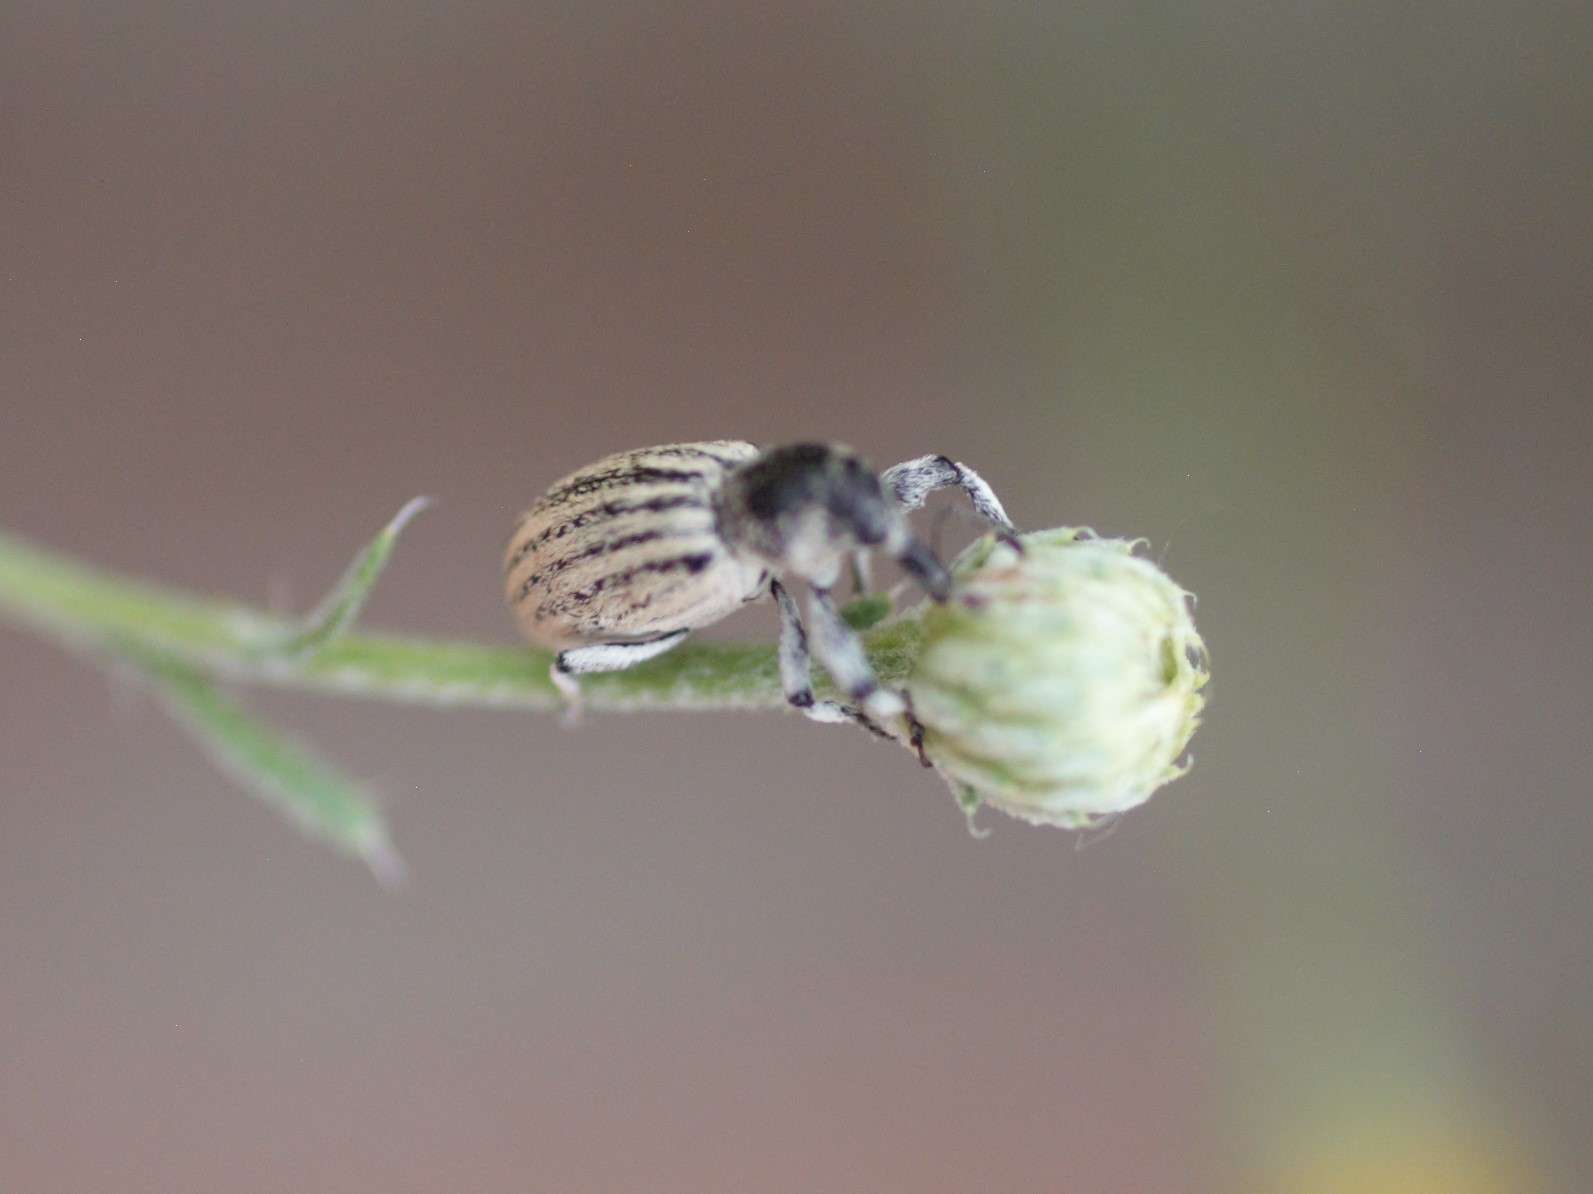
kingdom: Animalia
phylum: Arthropoda
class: Insecta
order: Coleoptera
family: Curculionidae
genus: Myrmex
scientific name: Myrmex lineatus
